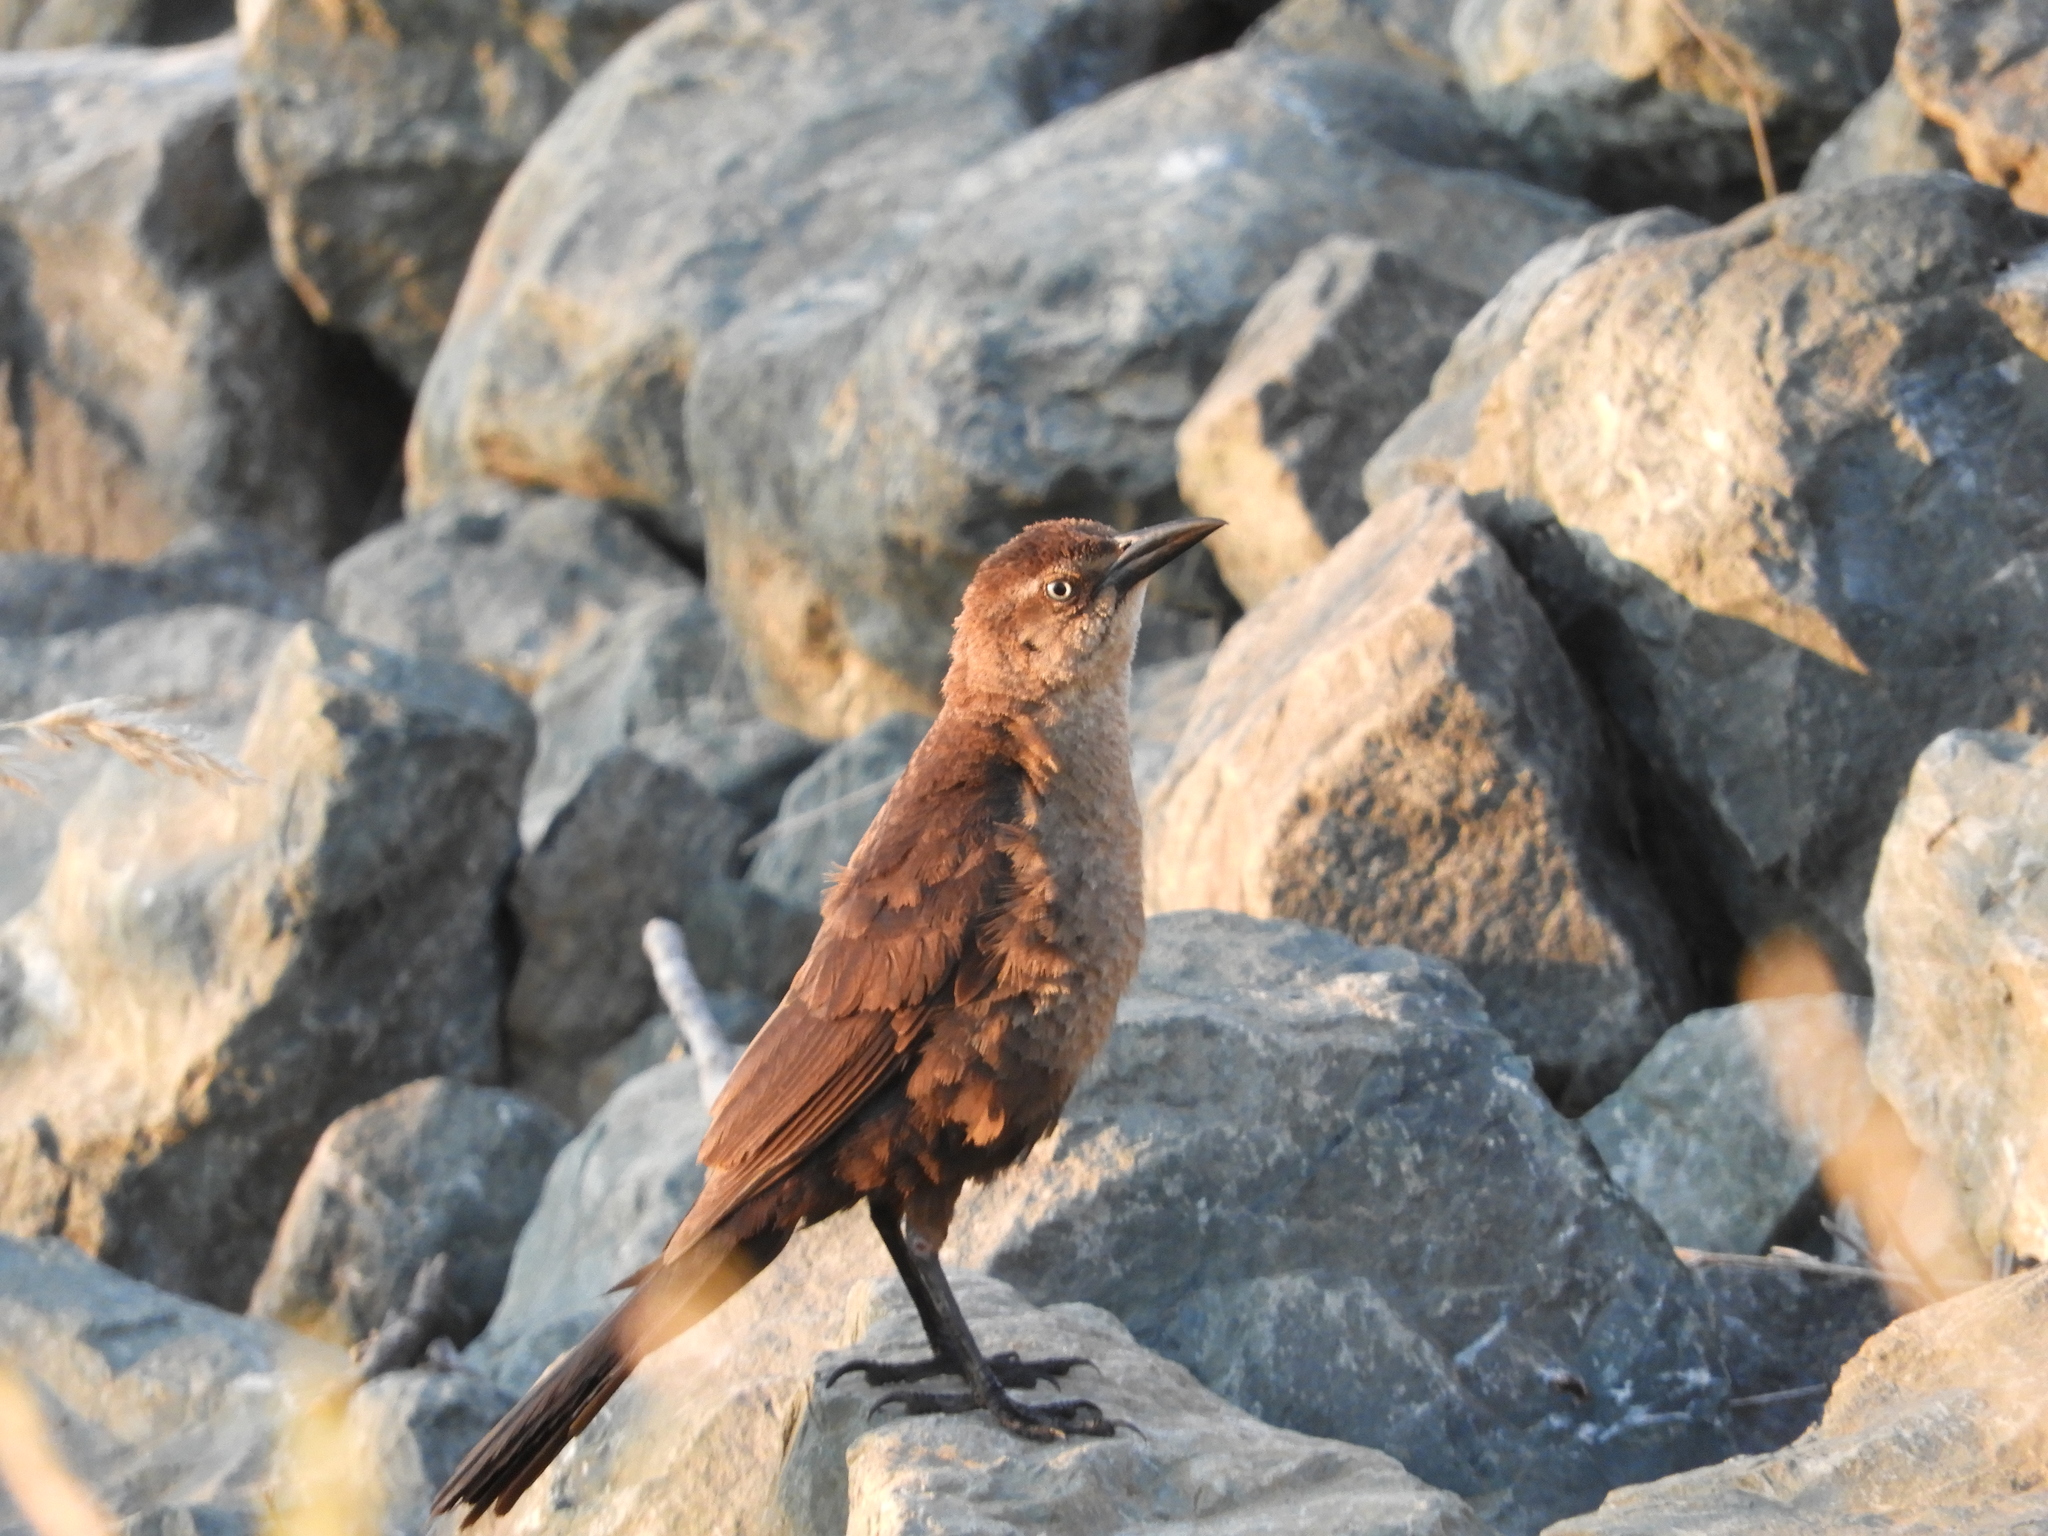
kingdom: Animalia
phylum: Chordata
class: Aves
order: Passeriformes
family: Icteridae
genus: Quiscalus
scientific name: Quiscalus mexicanus
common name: Great-tailed grackle
